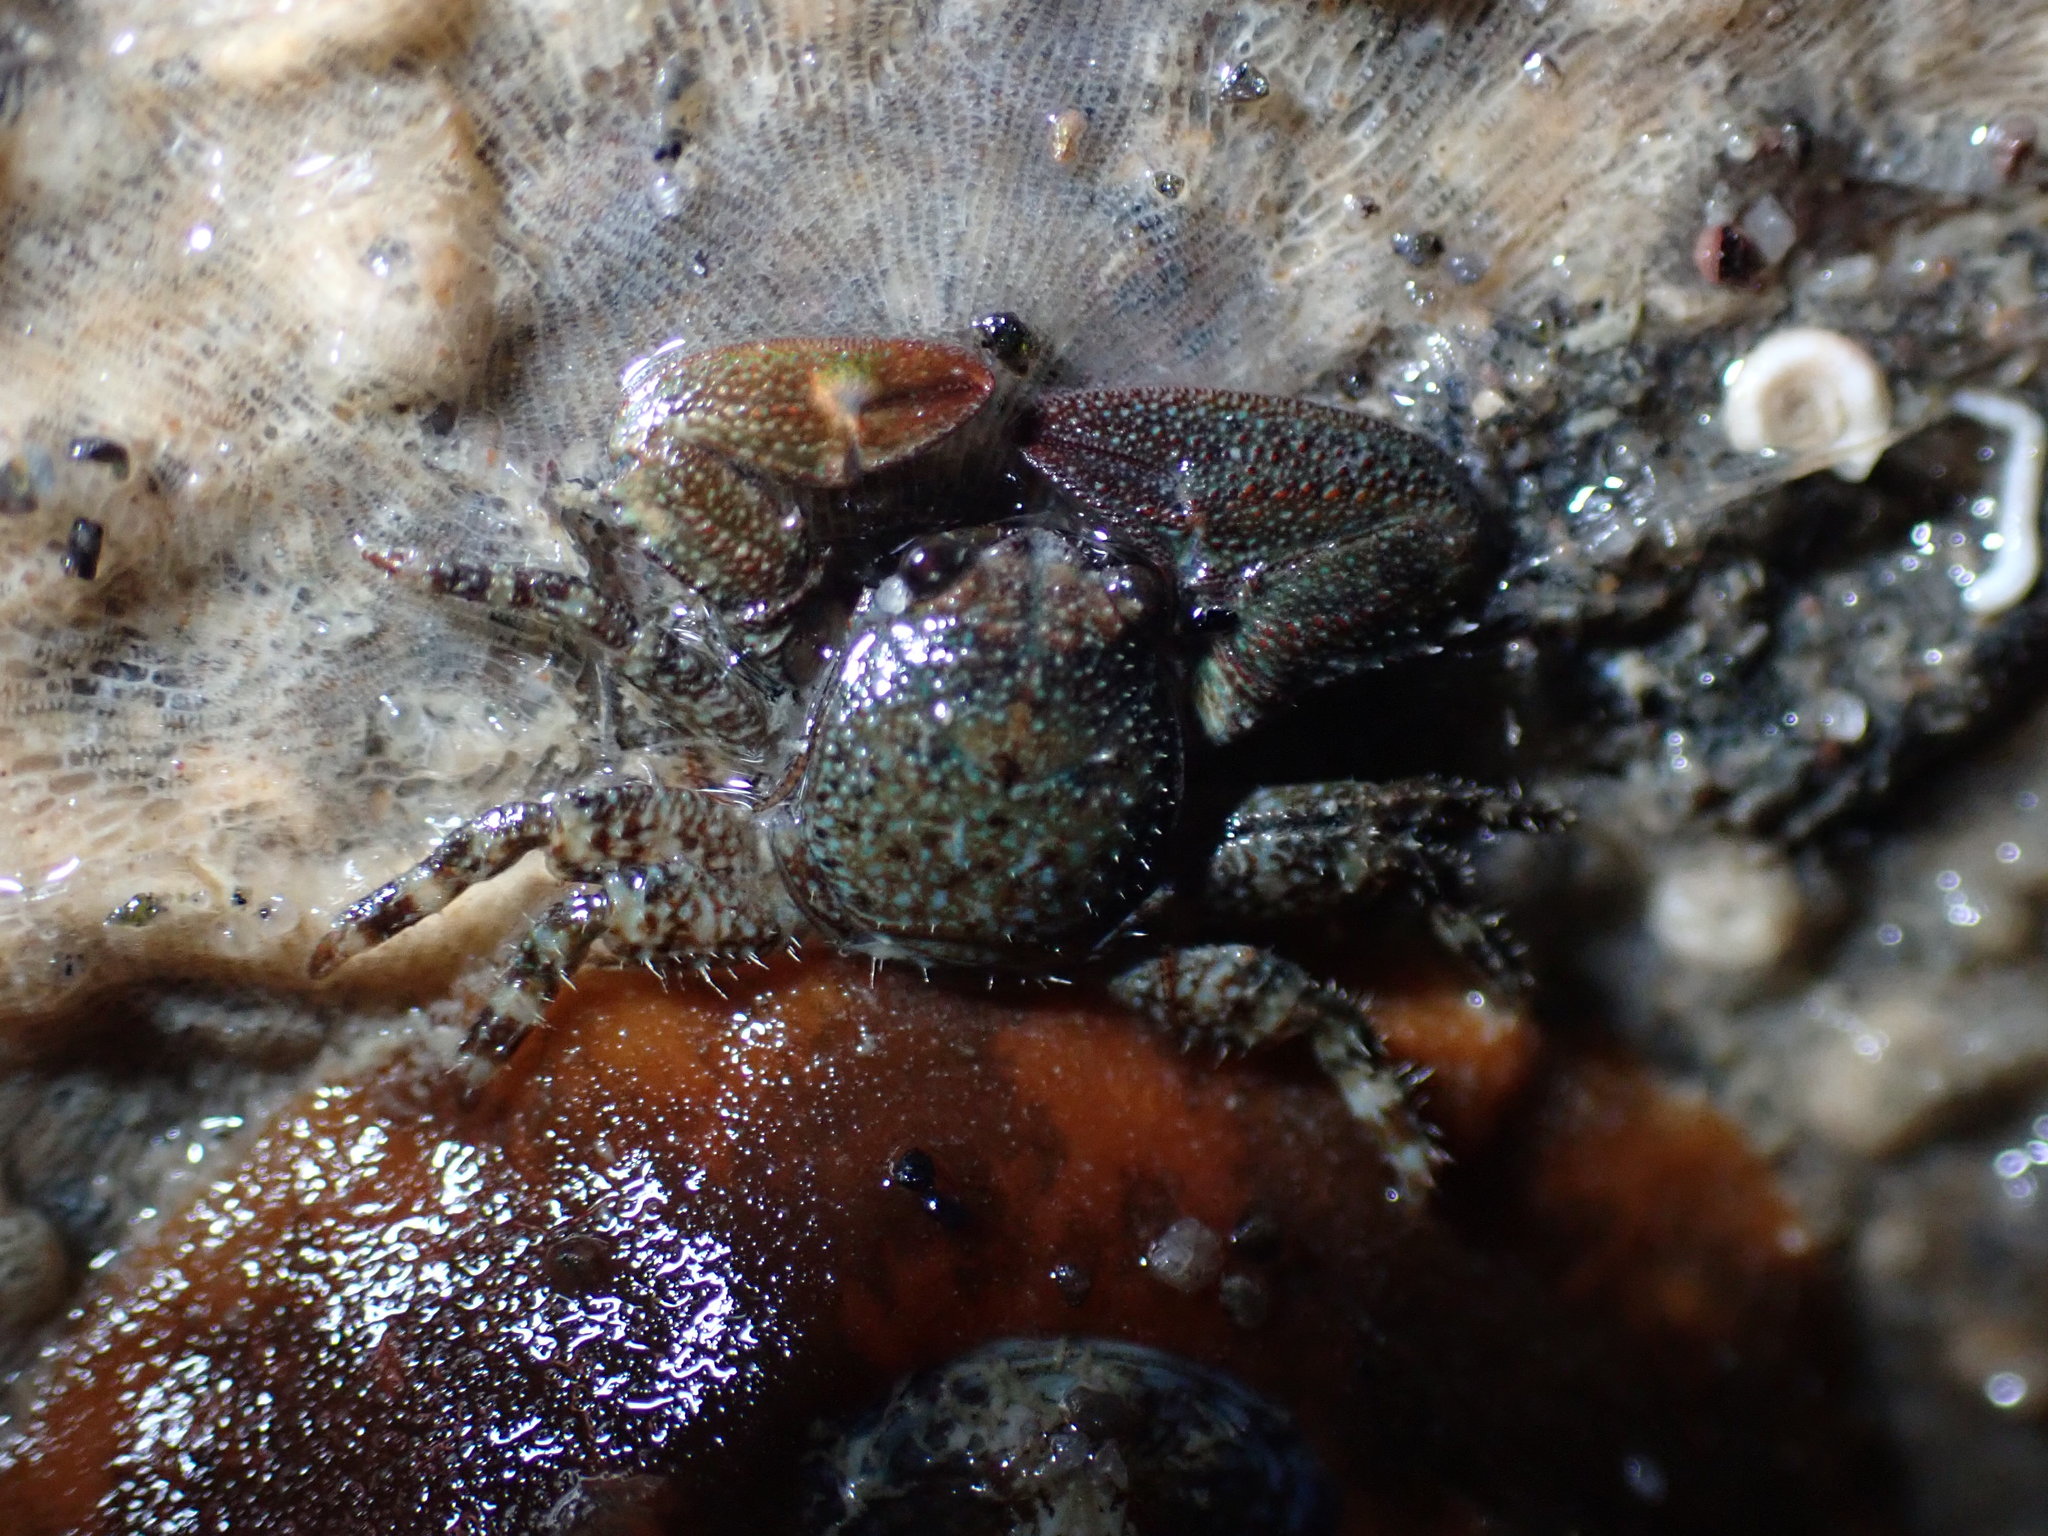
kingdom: Animalia
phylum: Arthropoda
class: Malacostraca
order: Decapoda
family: Porcellanidae
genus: Petrolisthes
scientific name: Petrolisthes elongatus
